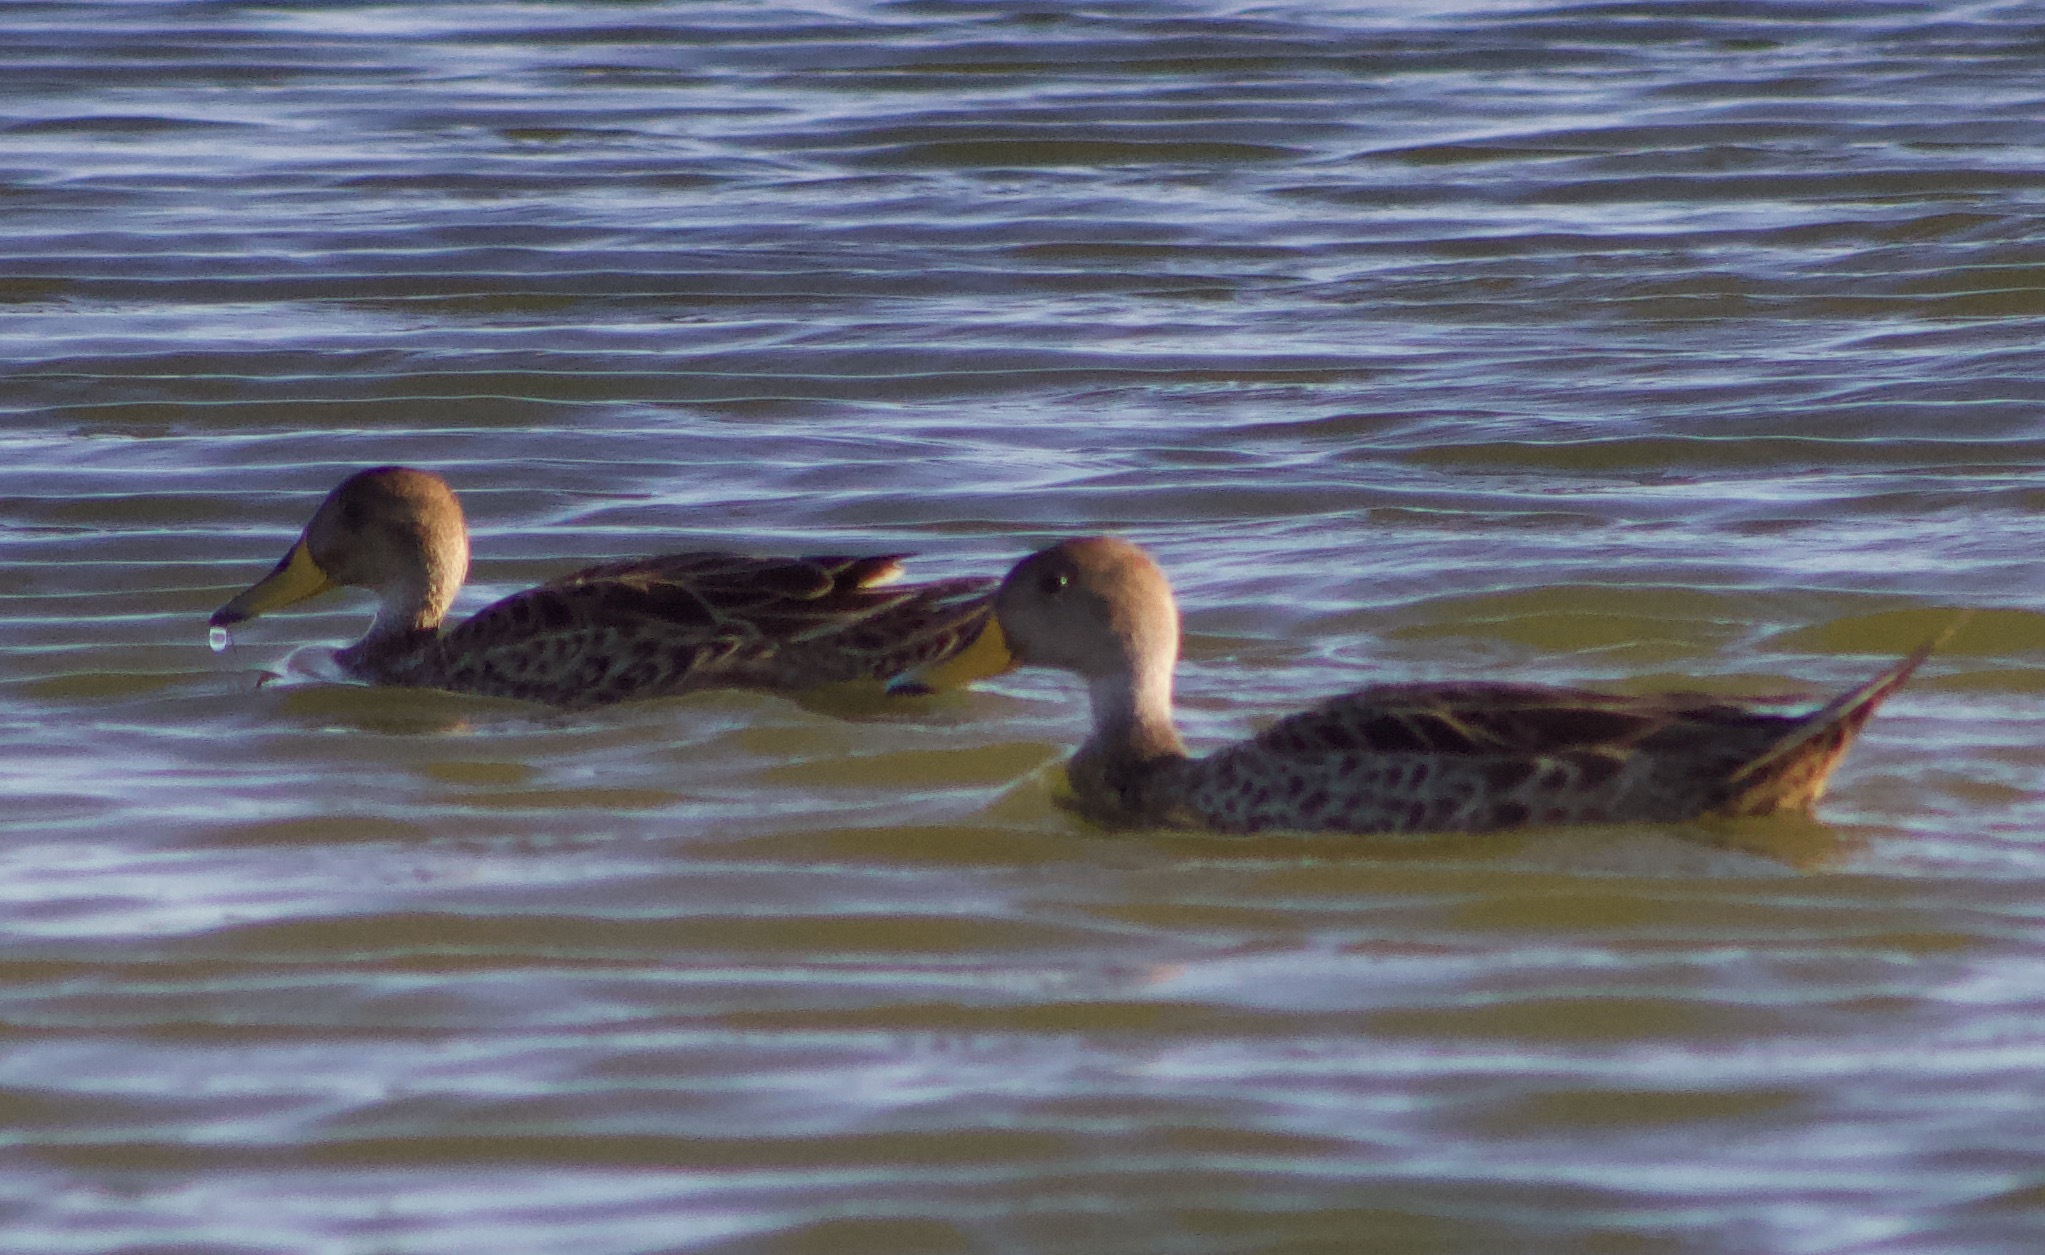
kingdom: Animalia
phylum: Chordata
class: Aves
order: Anseriformes
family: Anatidae
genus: Anas
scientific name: Anas georgica
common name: Yellow-billed pintail
